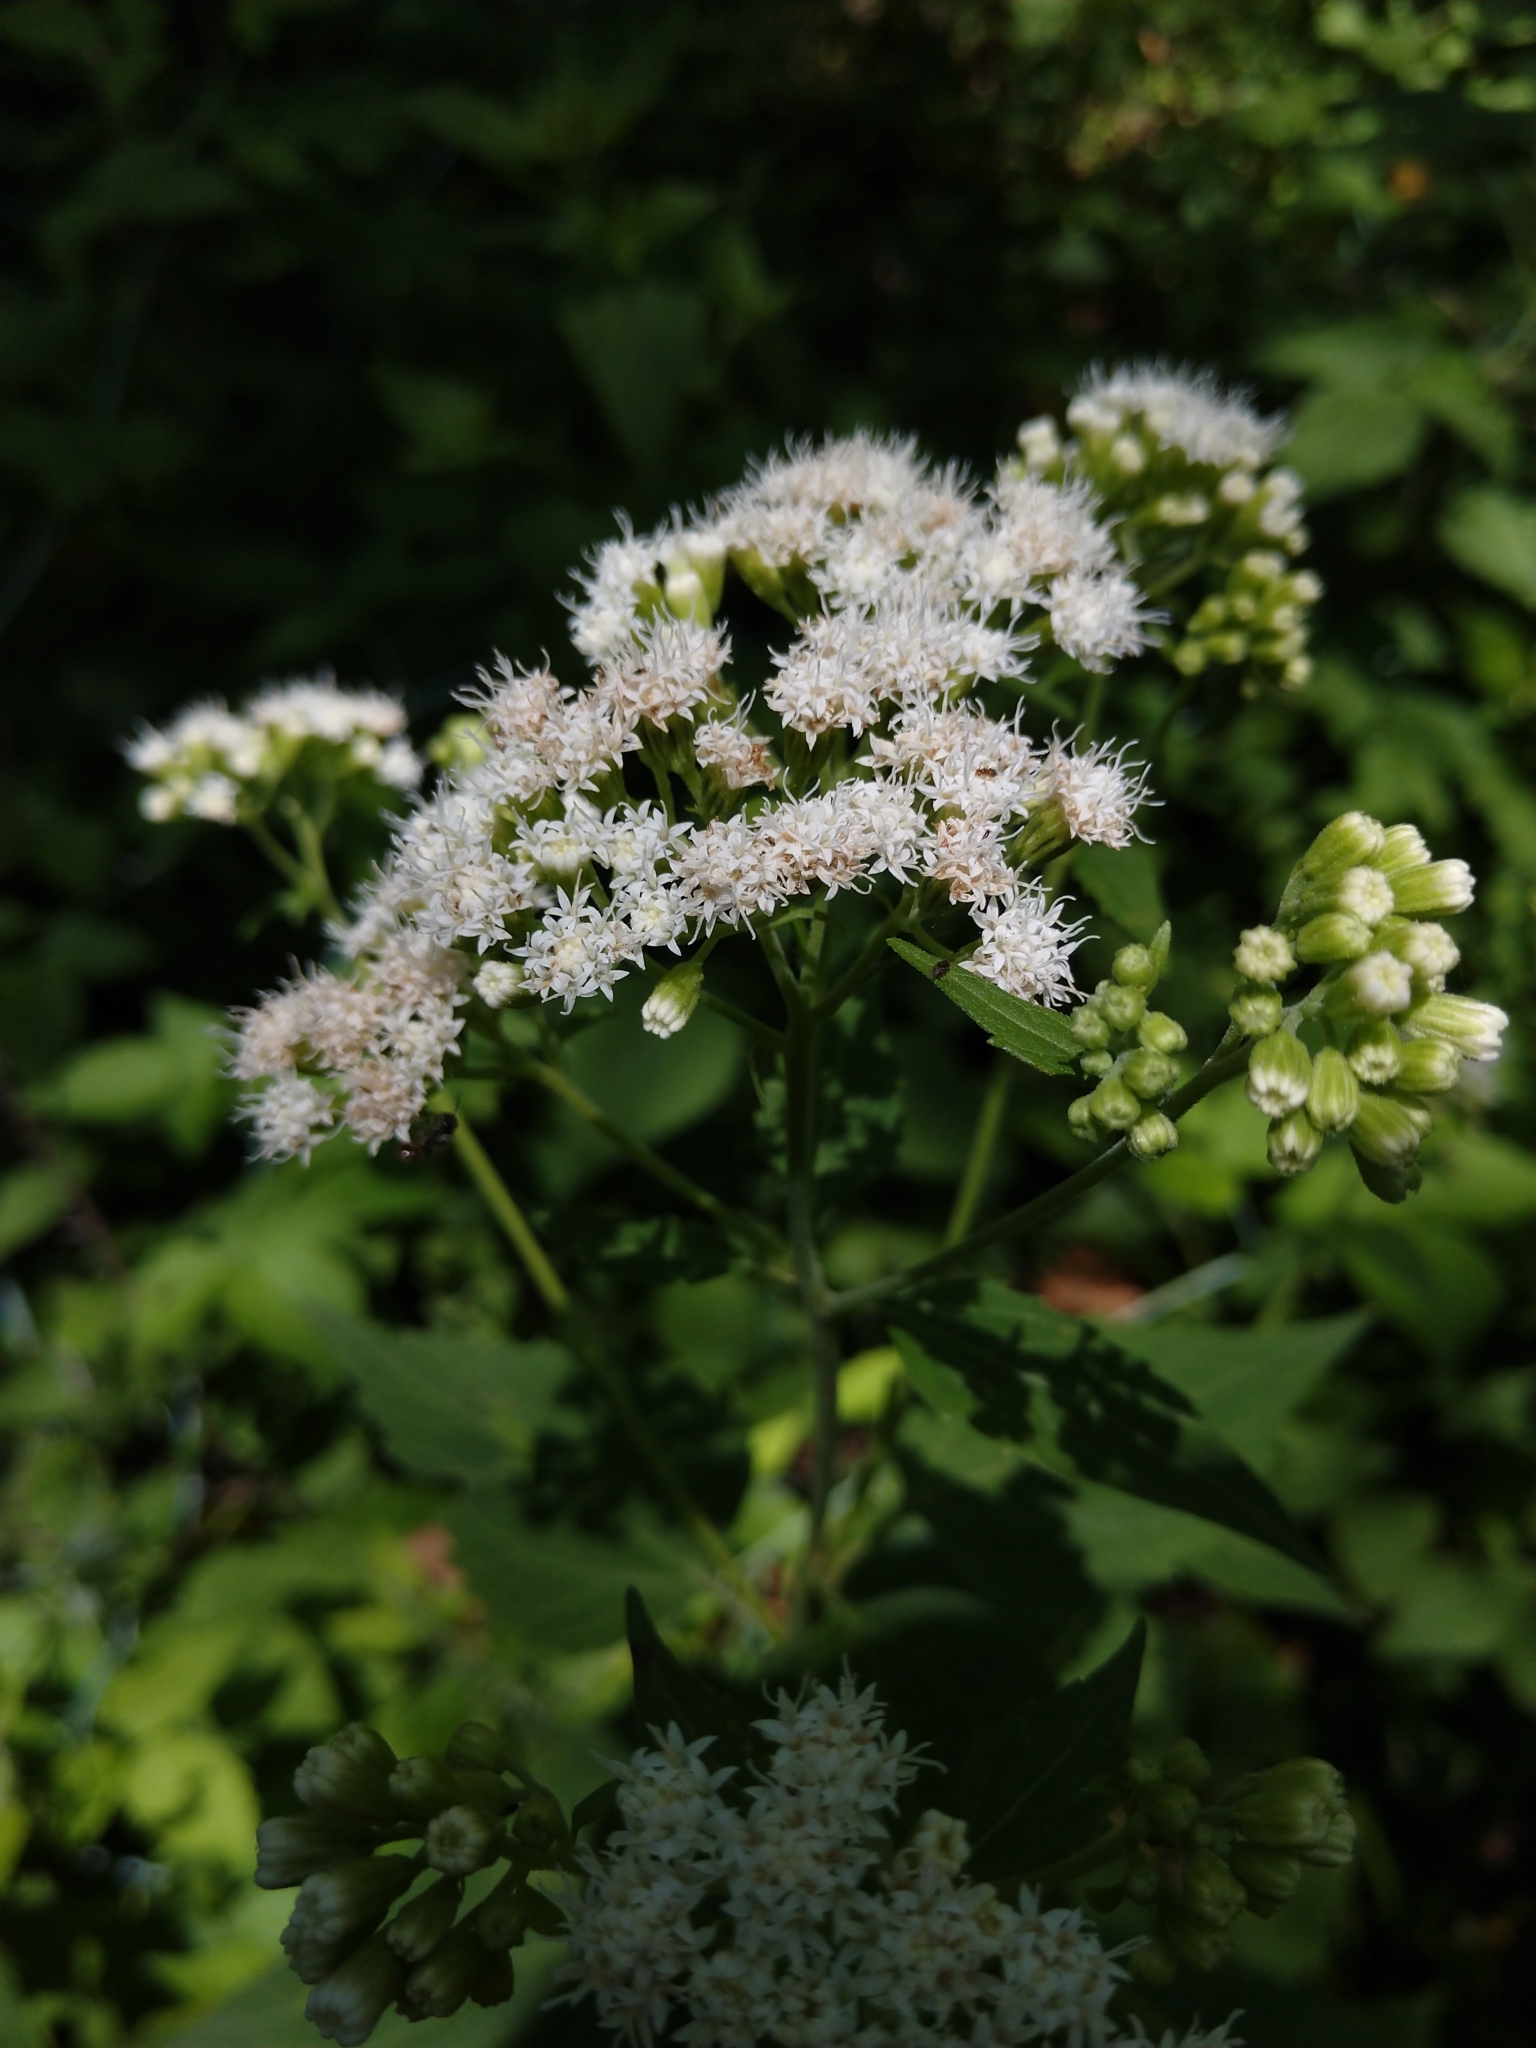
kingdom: Plantae
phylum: Tracheophyta
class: Magnoliopsida
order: Asterales
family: Asteraceae
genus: Ageratina
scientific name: Ageratina altissima
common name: White snakeroot
